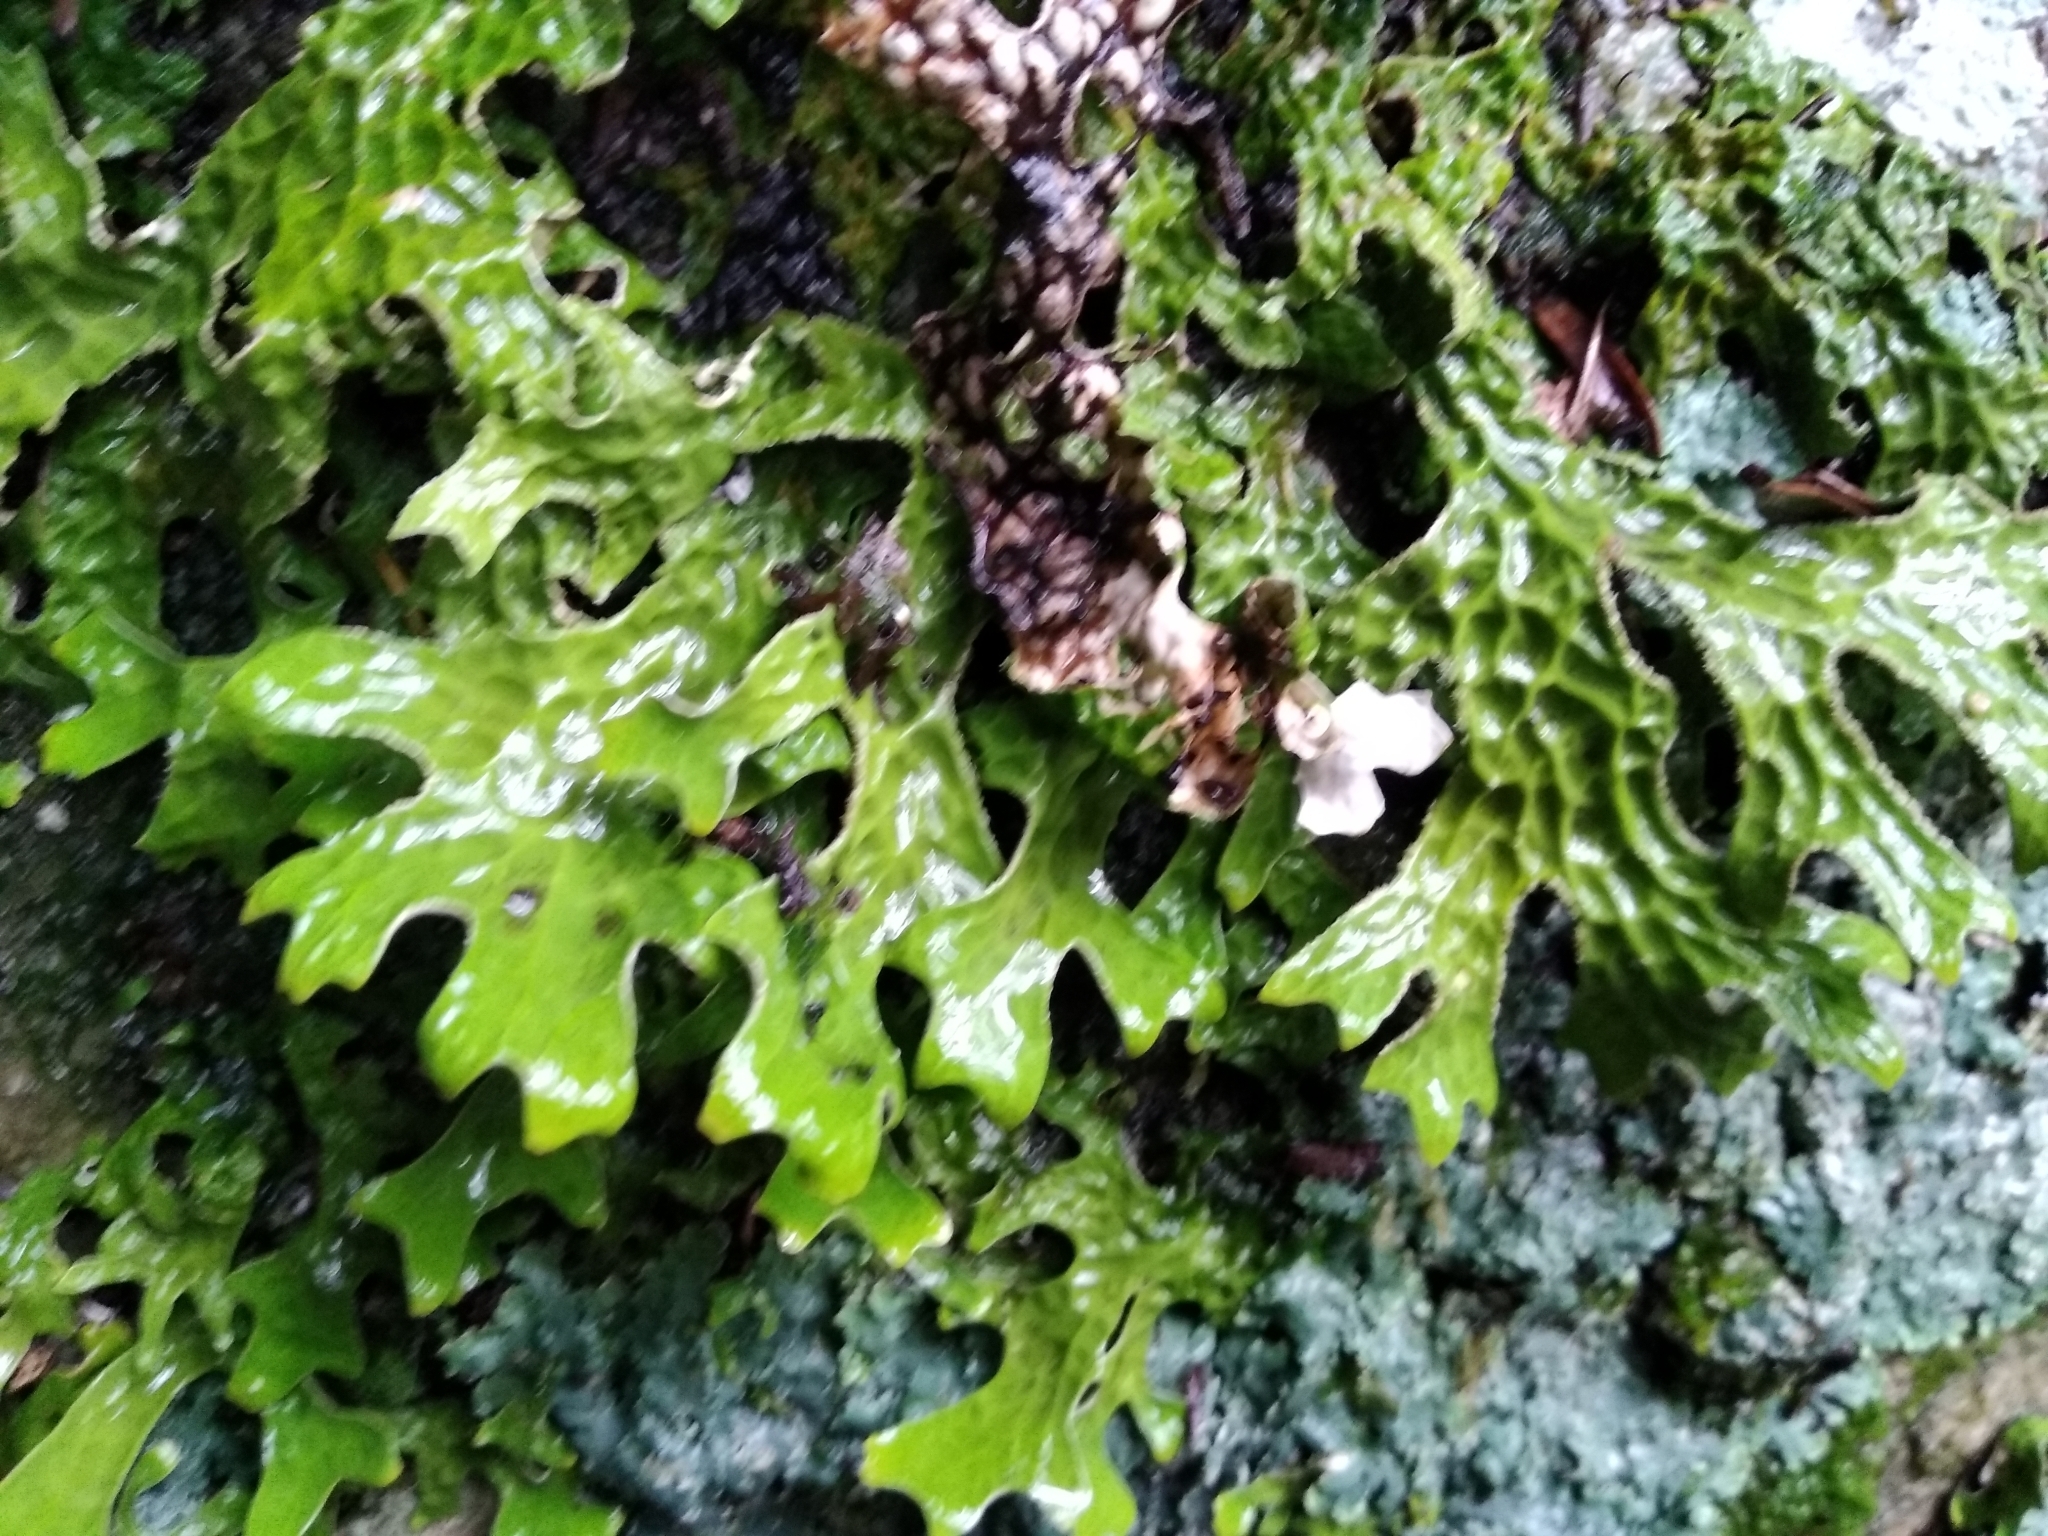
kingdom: Fungi
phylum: Ascomycota
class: Lecanoromycetes
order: Peltigerales
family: Lobariaceae
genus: Lobaria
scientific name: Lobaria pulmonaria
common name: Lungwort
